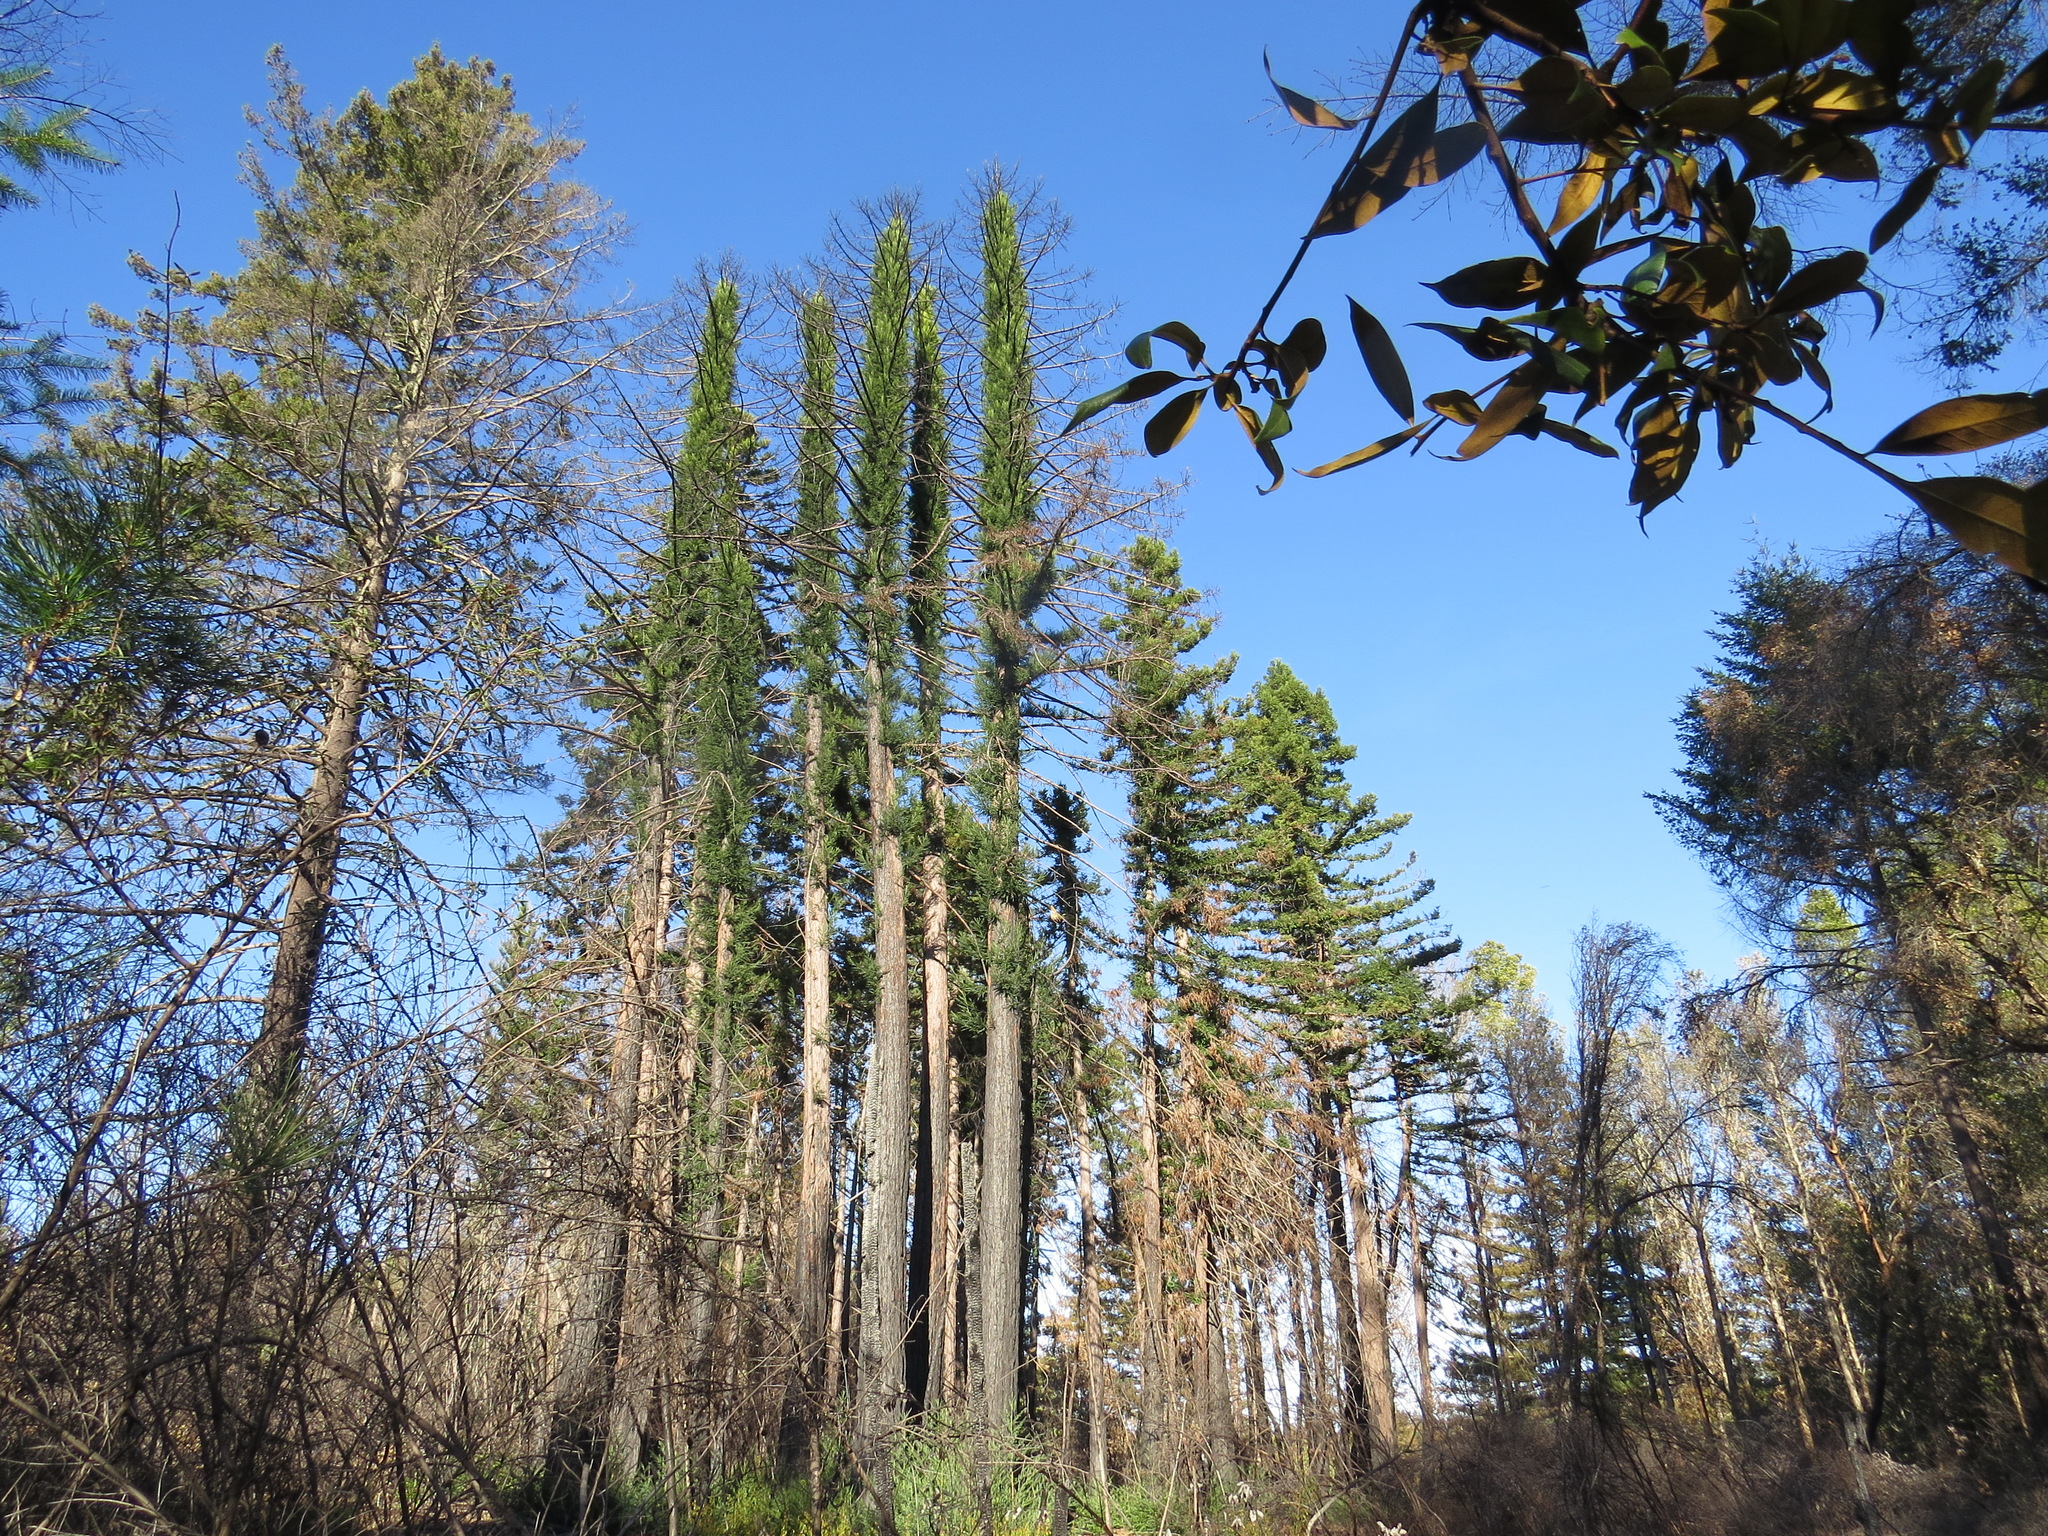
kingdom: Plantae
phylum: Tracheophyta
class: Pinopsida
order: Pinales
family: Cupressaceae
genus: Sequoia
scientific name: Sequoia sempervirens
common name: Coast redwood
